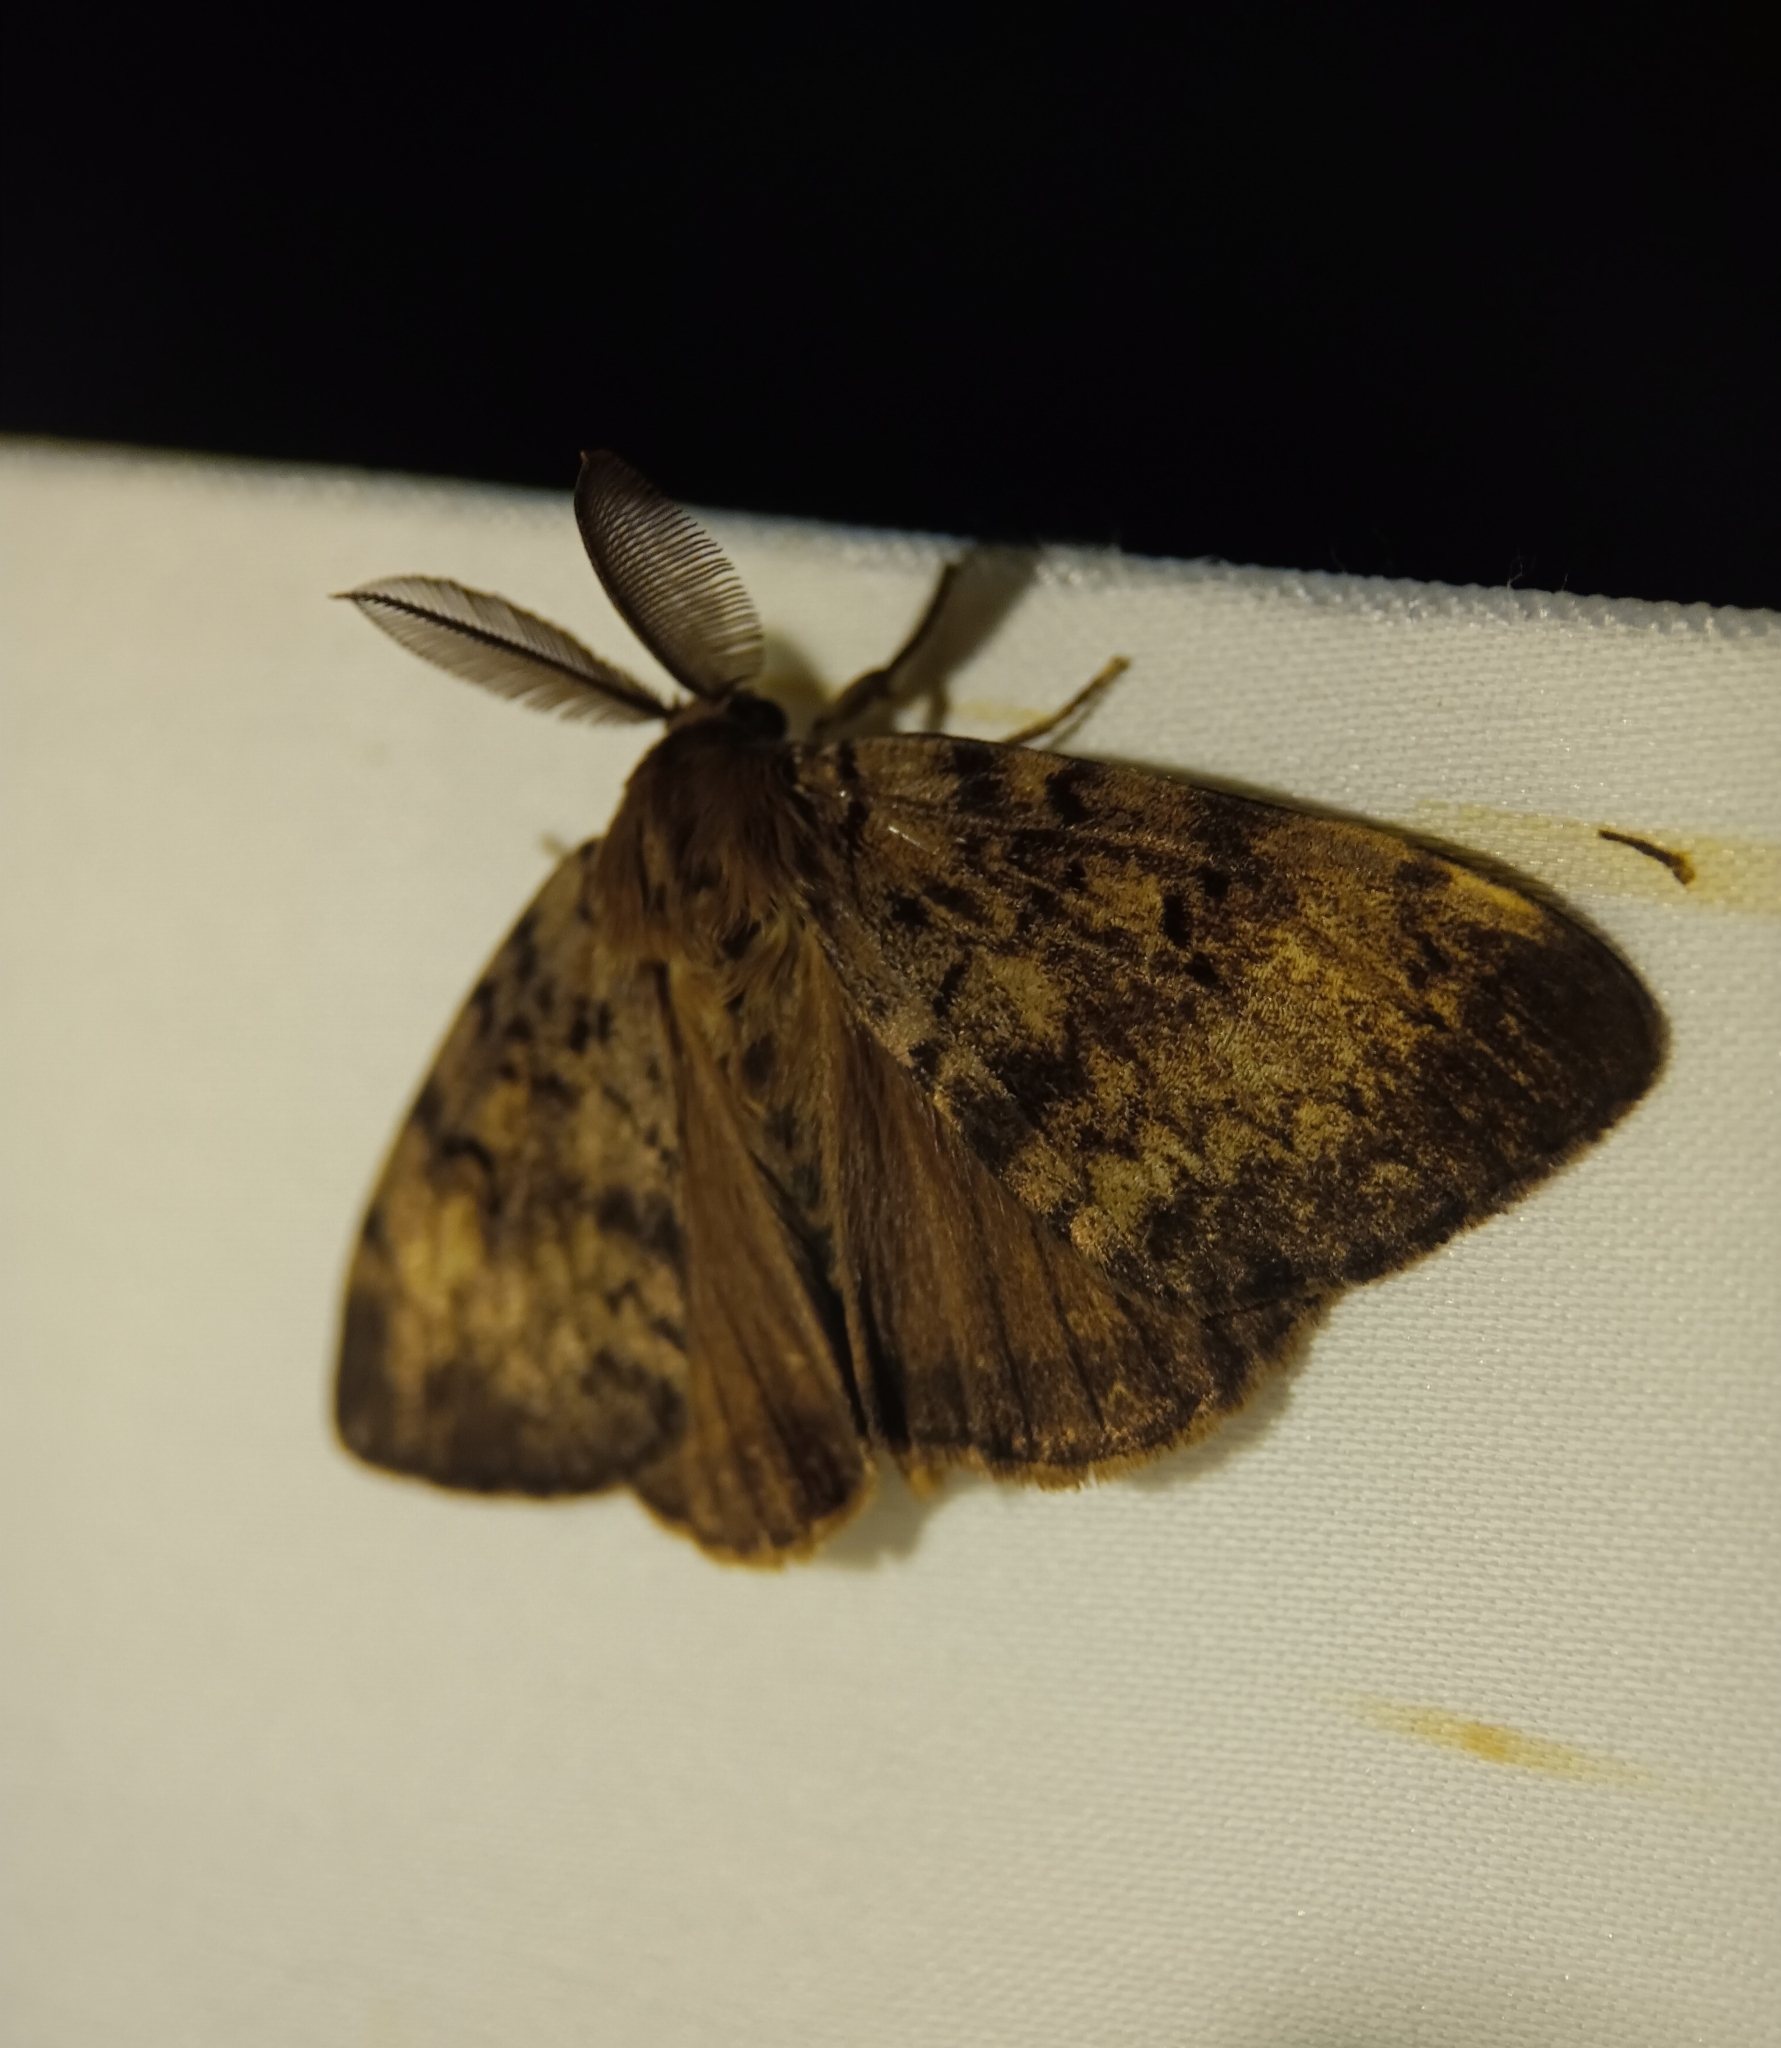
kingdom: Animalia
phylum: Arthropoda
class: Insecta
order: Lepidoptera
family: Erebidae
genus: Lymantria
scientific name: Lymantria dispar
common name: Gypsy moth
